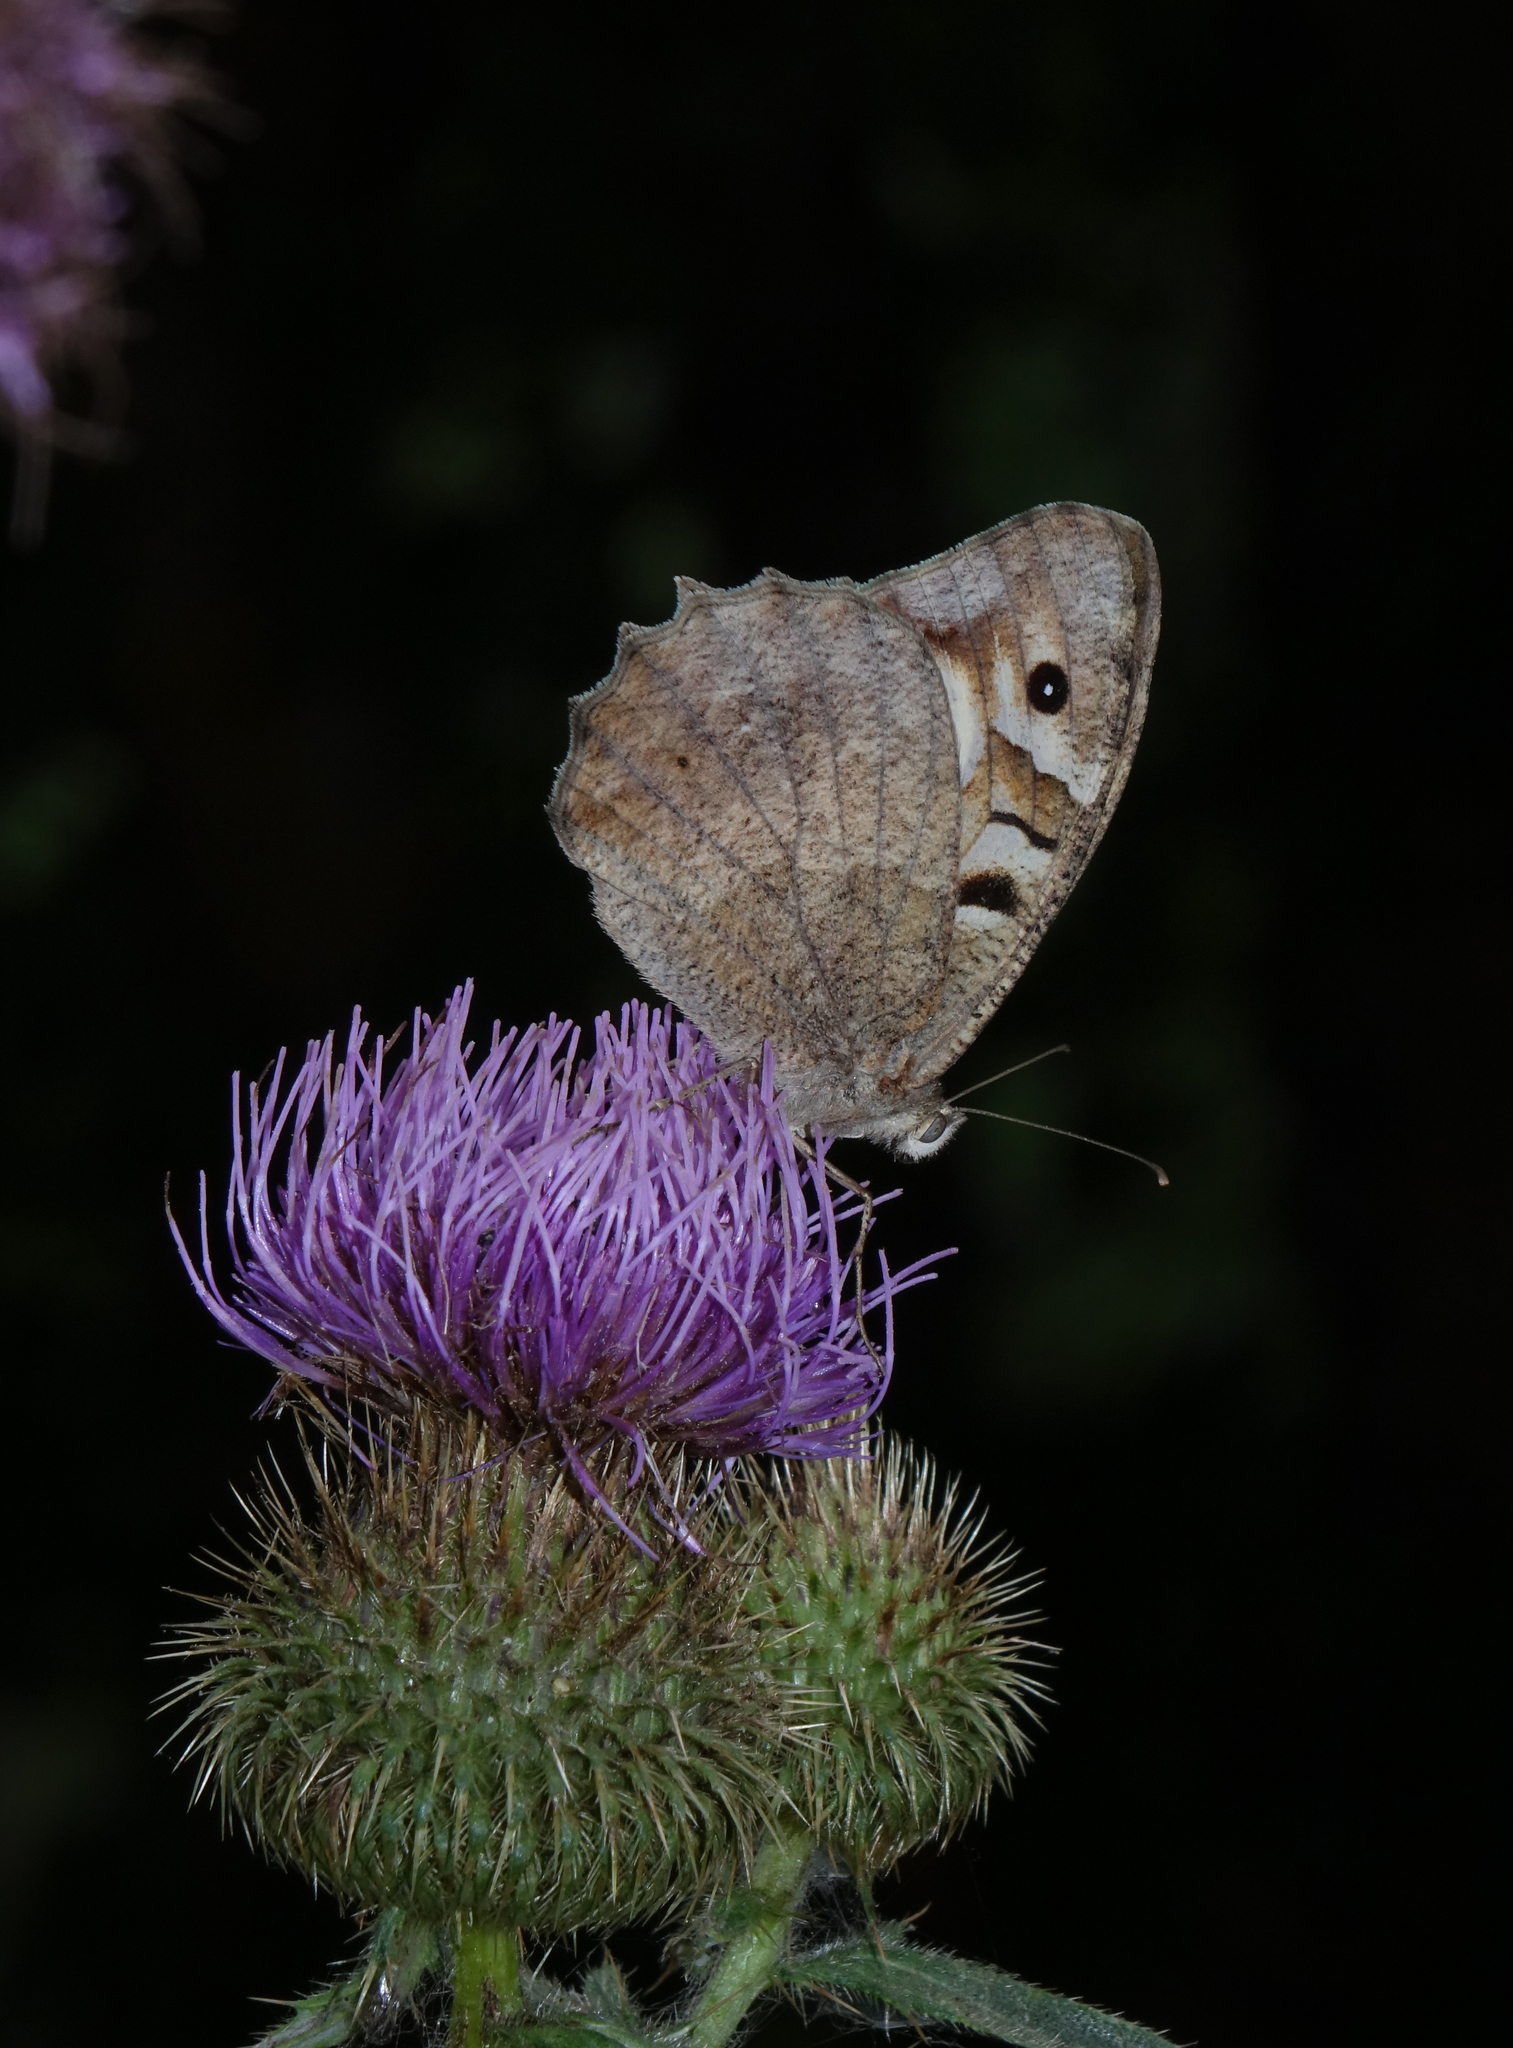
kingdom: Animalia
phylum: Arthropoda
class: Insecta
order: Lepidoptera
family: Nymphalidae
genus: Satyrus
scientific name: Satyrus briseis
